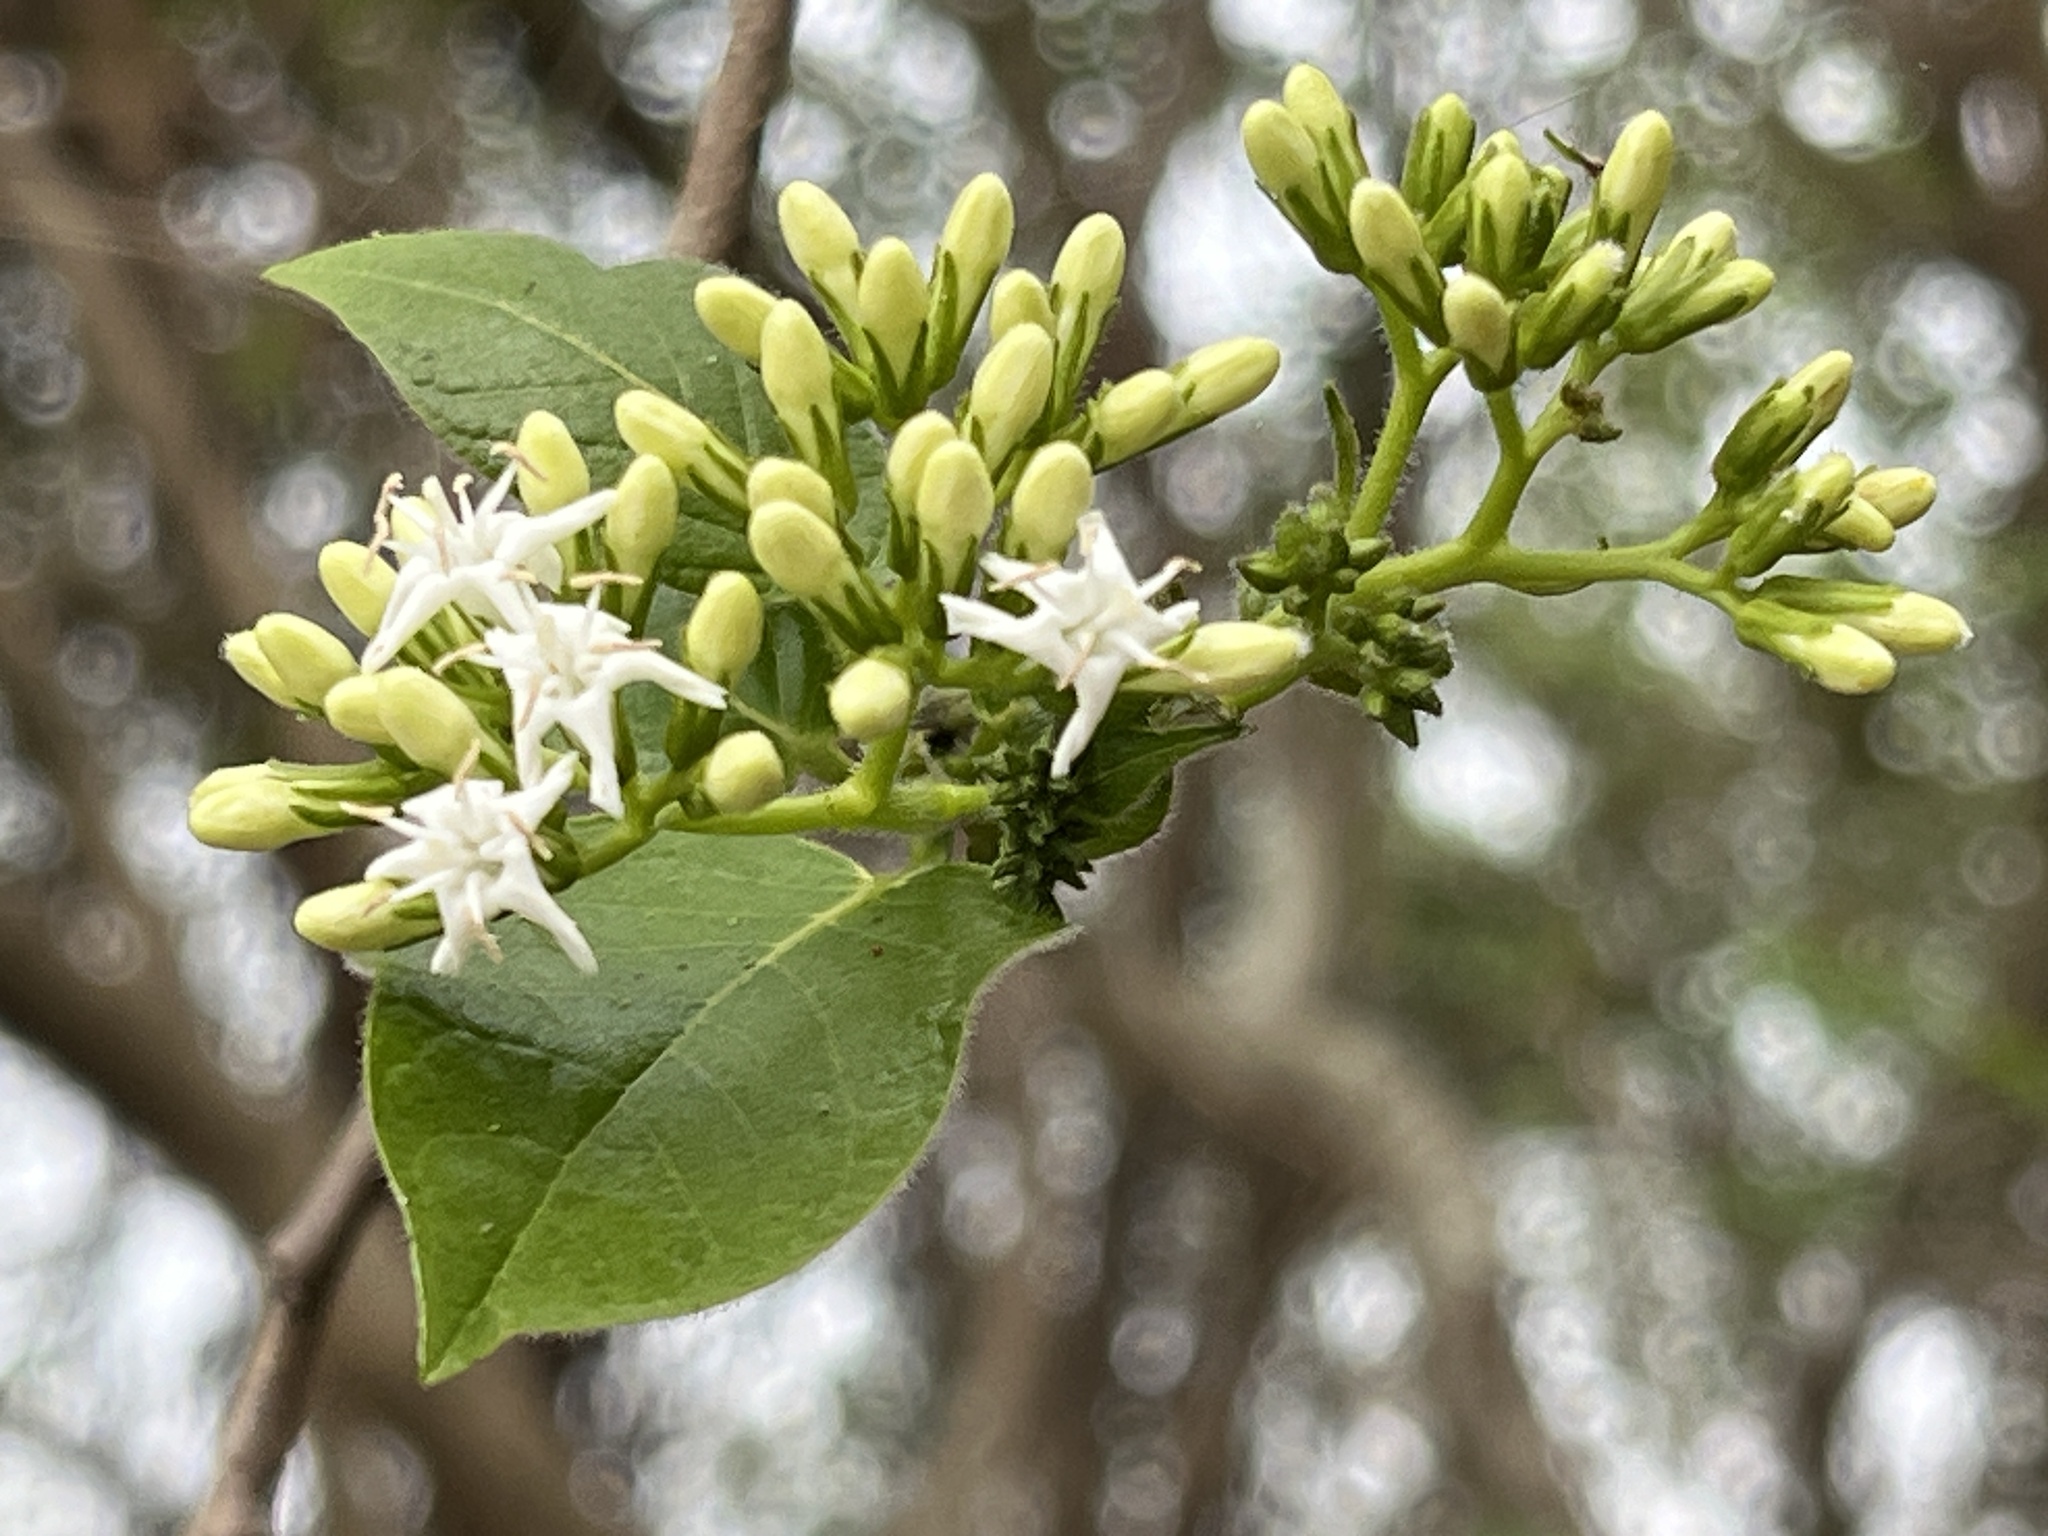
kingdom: Plantae
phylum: Tracheophyta
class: Magnoliopsida
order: Boraginales
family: Ehretiaceae
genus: Ehretia
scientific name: Ehretia resinosa
